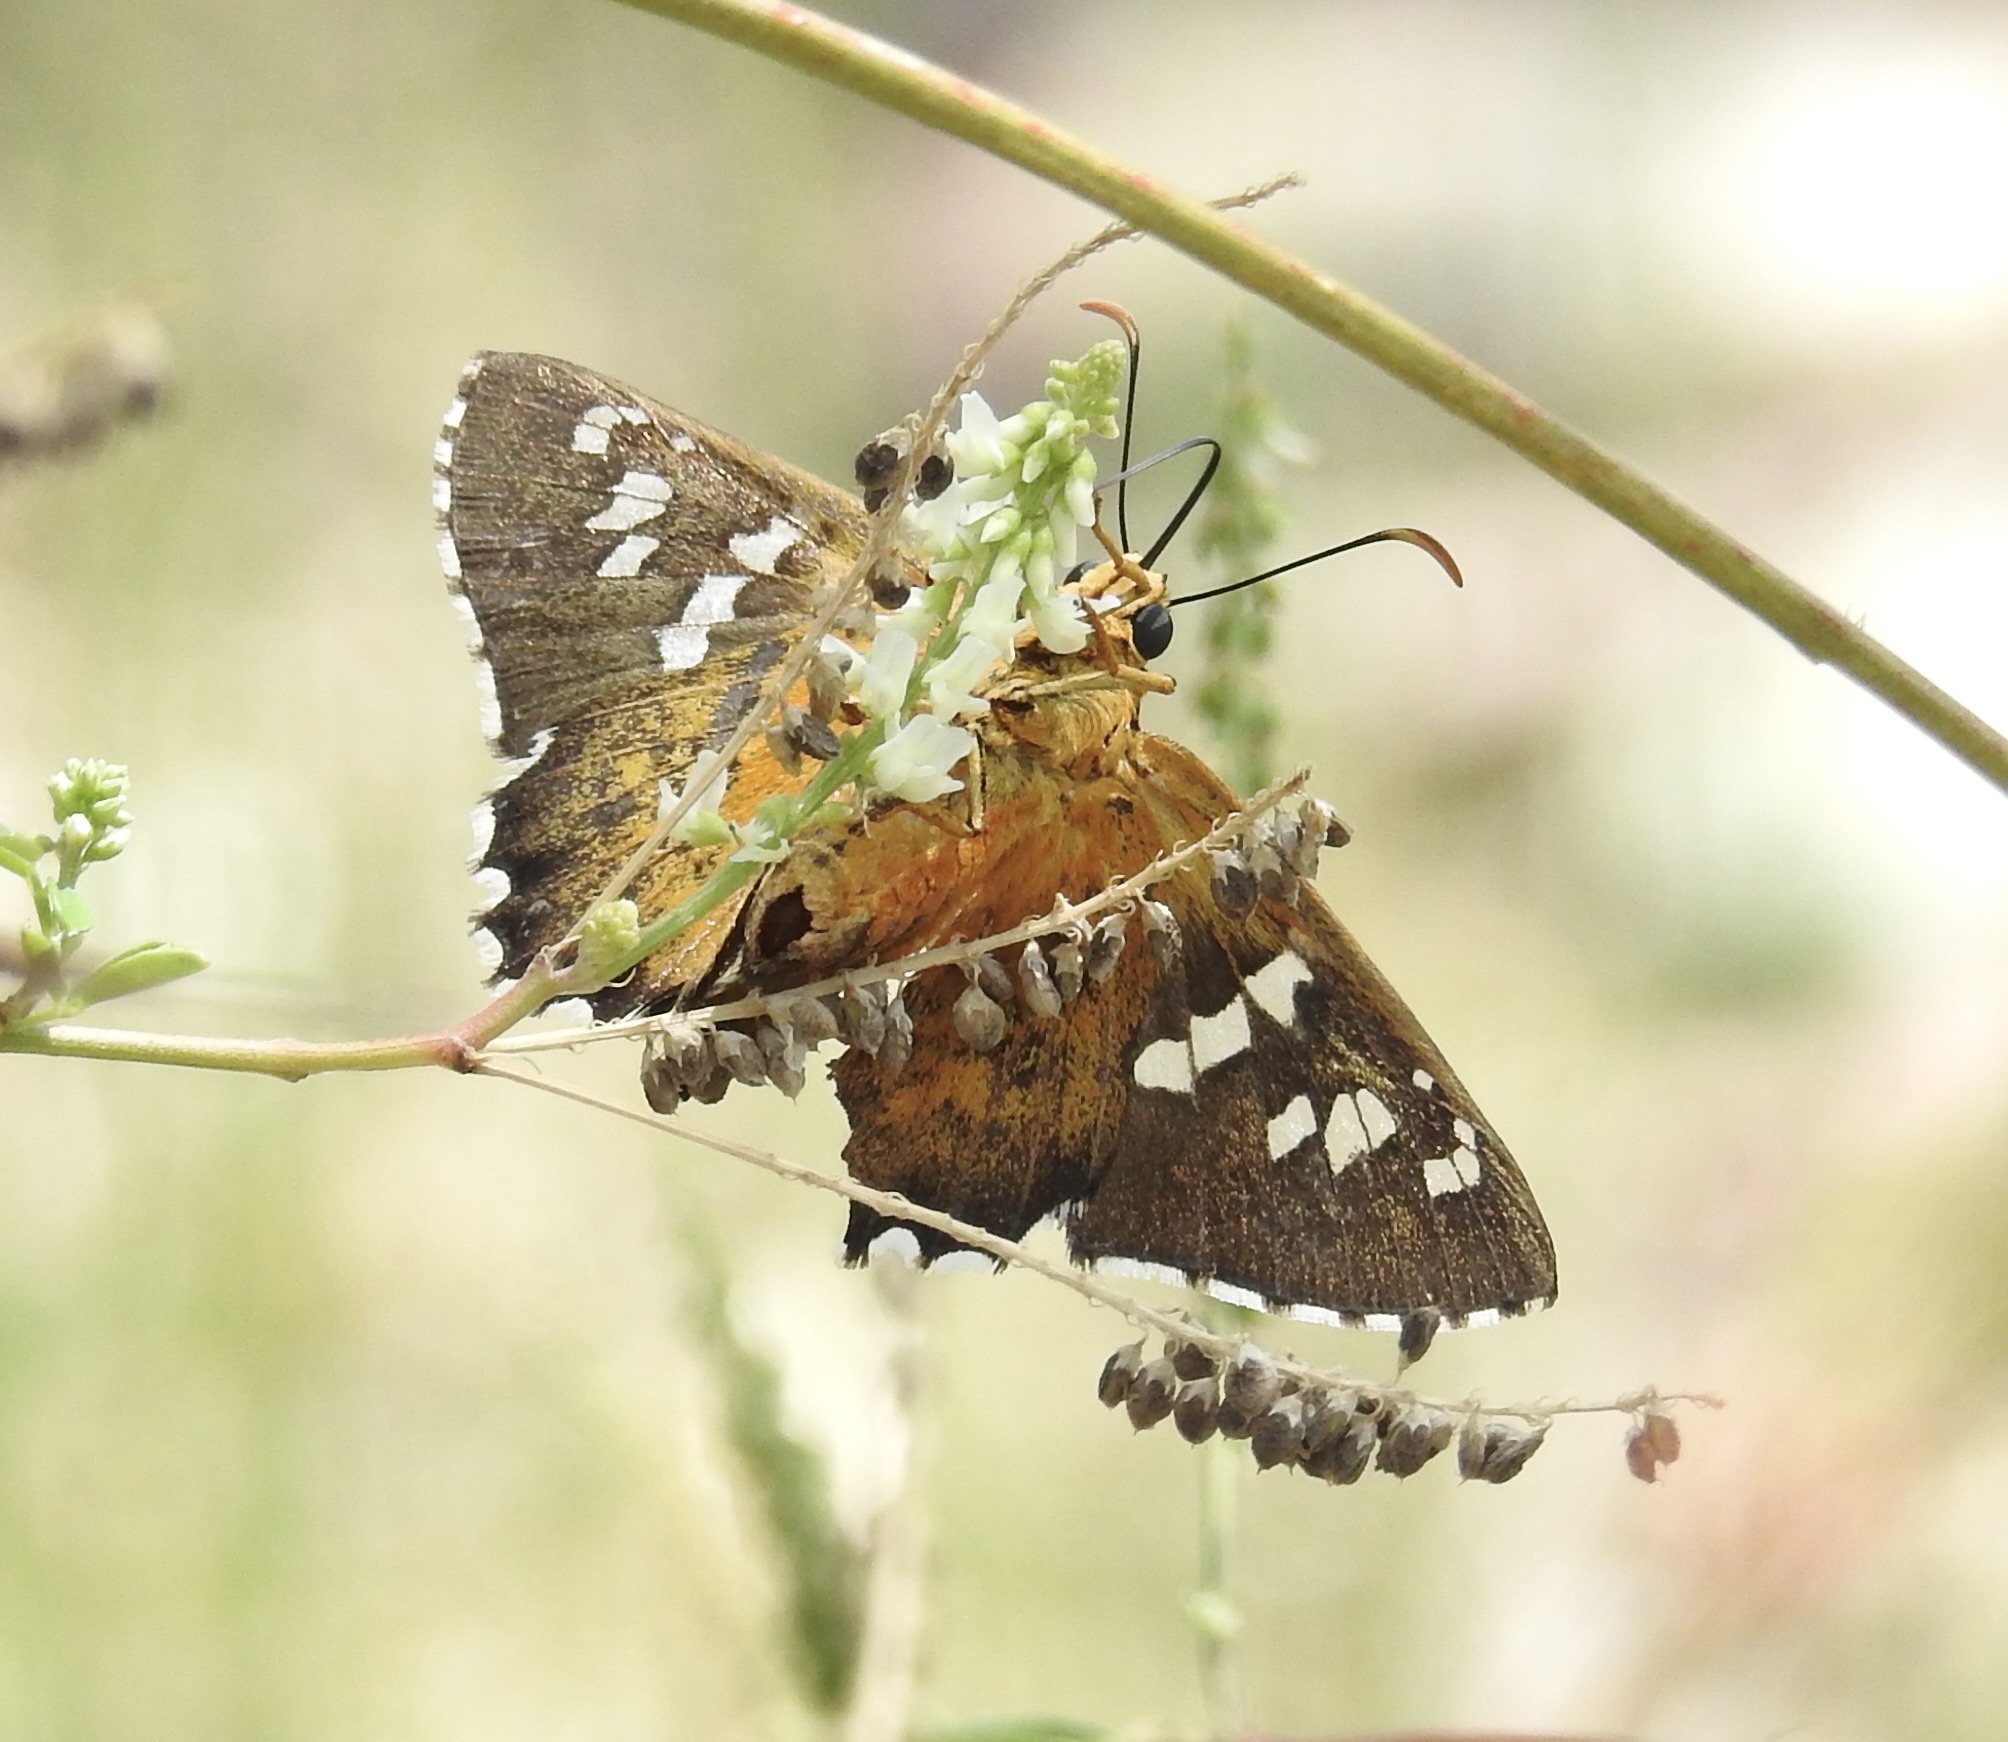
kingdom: Animalia
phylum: Arthropoda
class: Insecta
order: Lepidoptera
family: Hesperiidae
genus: Pyrrhopyge
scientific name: Pyrrhopyge araxes
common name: Dull firetip
